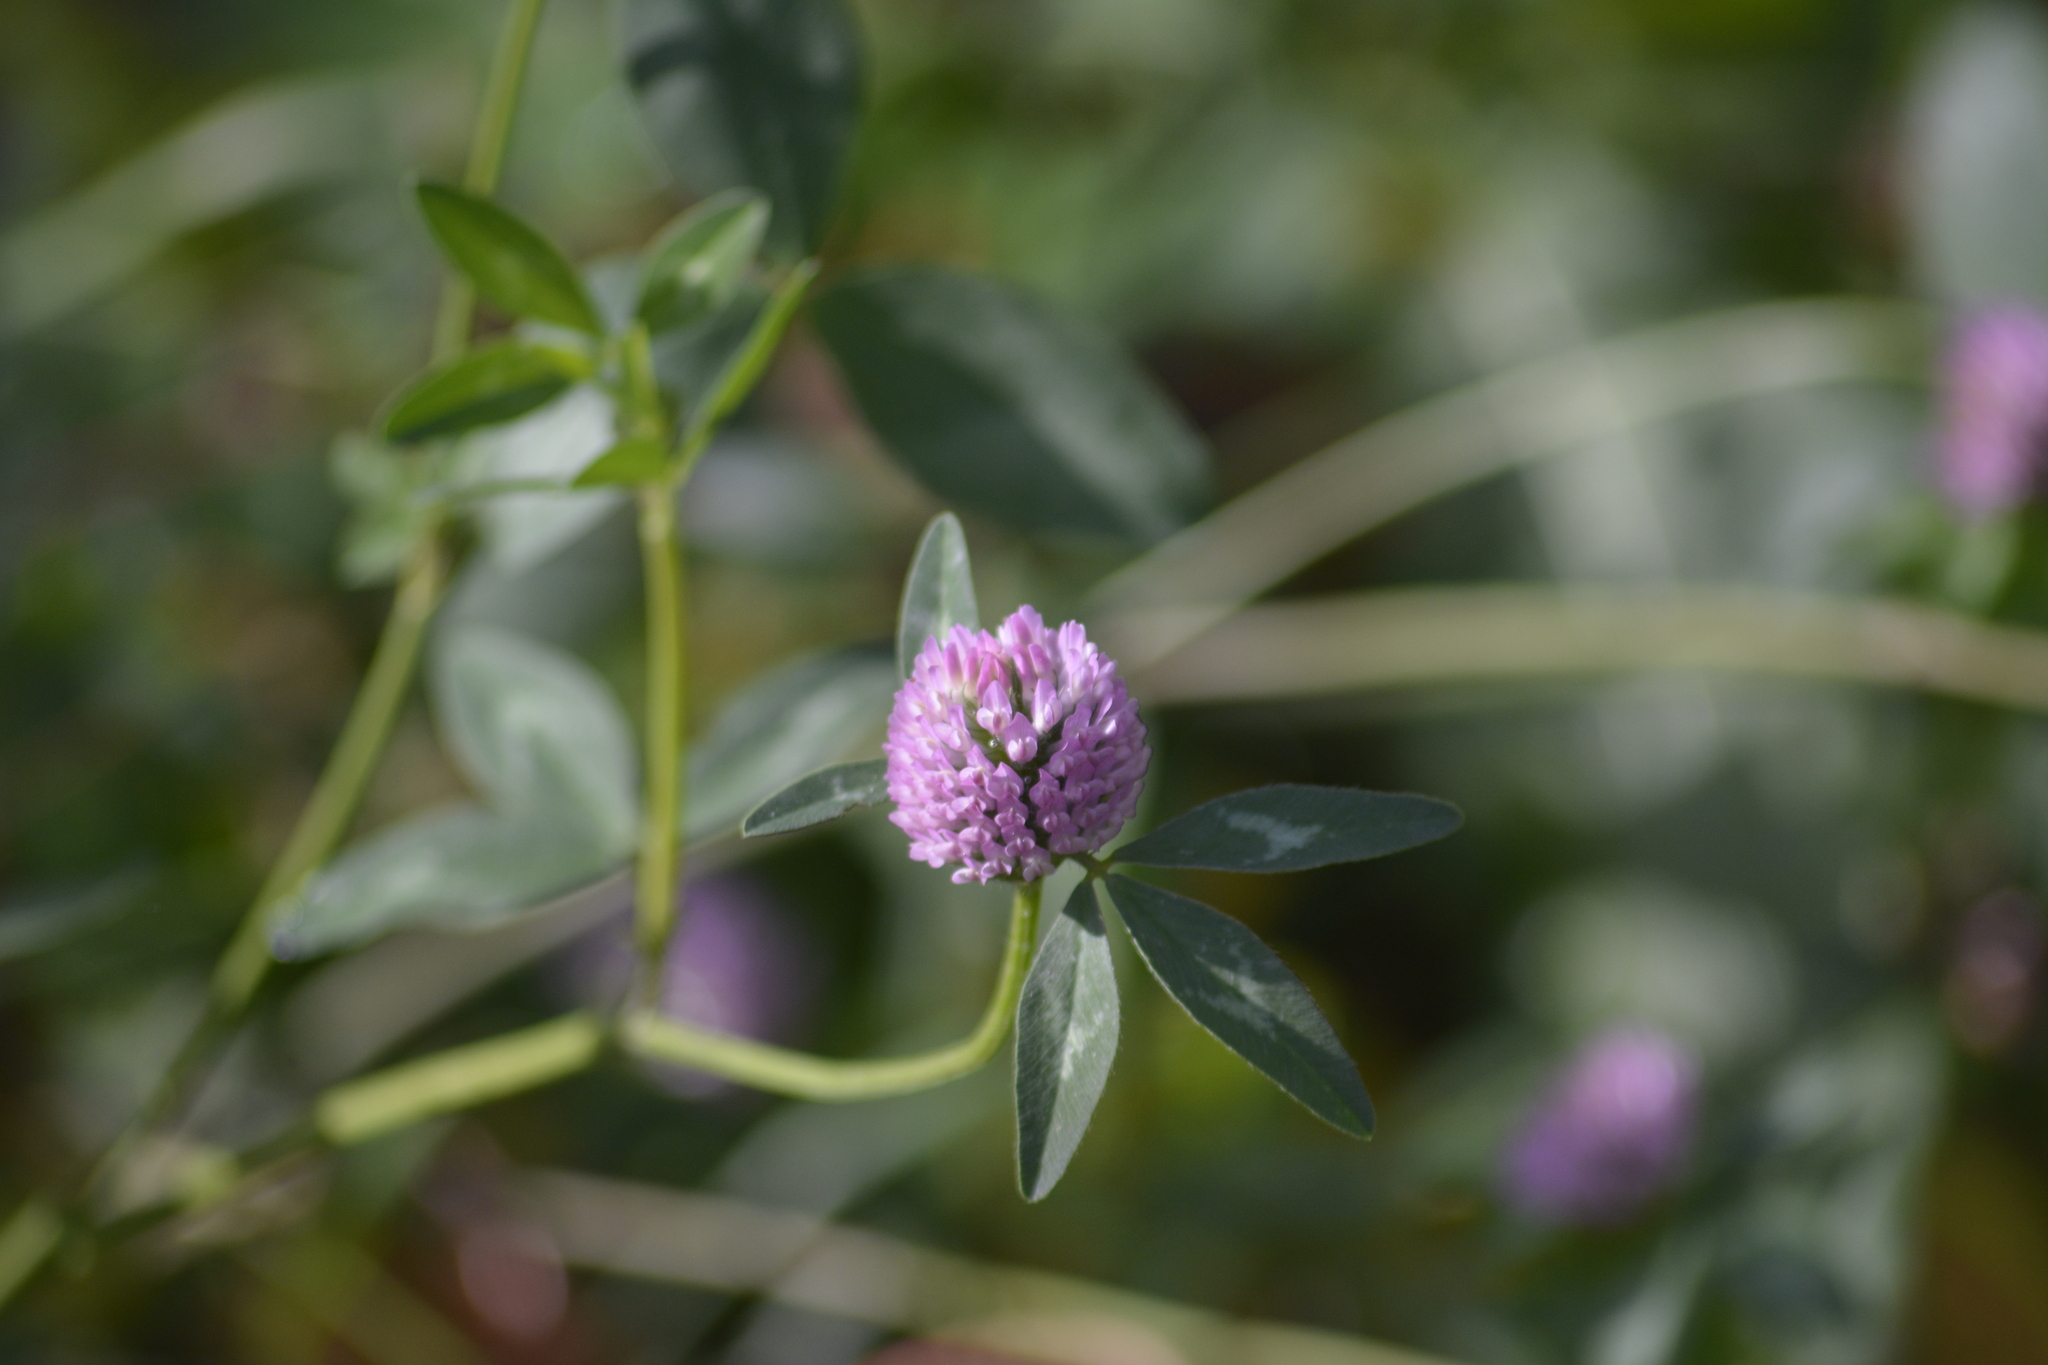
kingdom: Plantae
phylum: Tracheophyta
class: Magnoliopsida
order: Fabales
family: Fabaceae
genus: Trifolium
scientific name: Trifolium pratense
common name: Red clover
